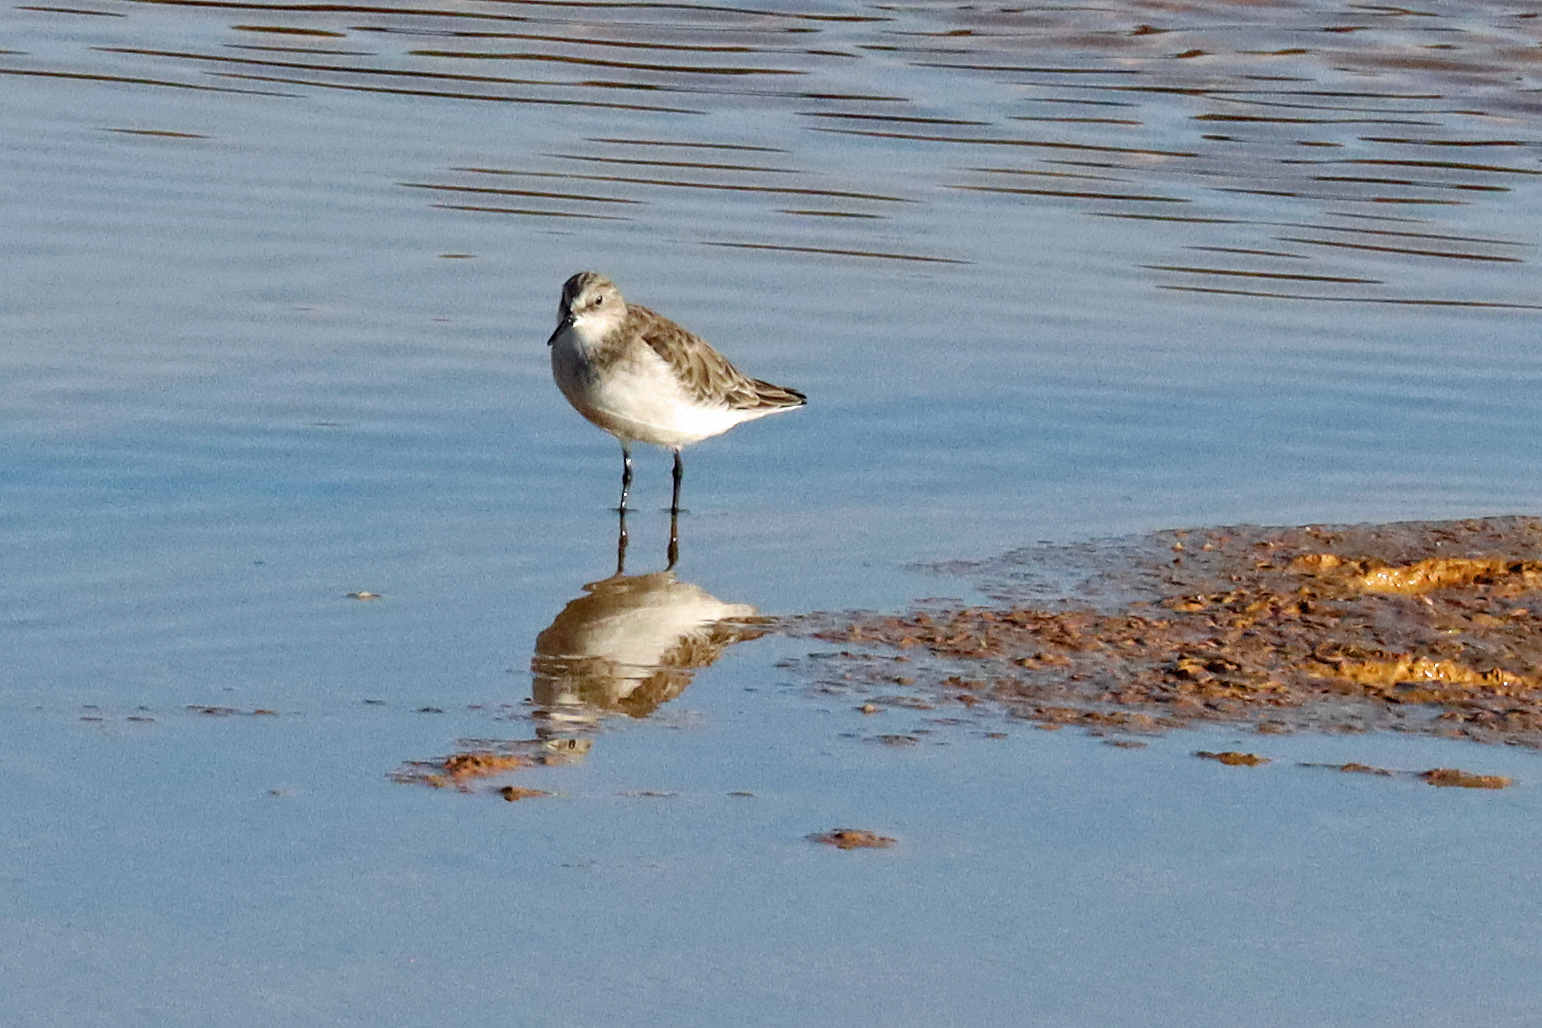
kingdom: Animalia
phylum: Chordata
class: Aves
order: Charadriiformes
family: Scolopacidae
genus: Calidris
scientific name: Calidris alba
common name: Sanderling
